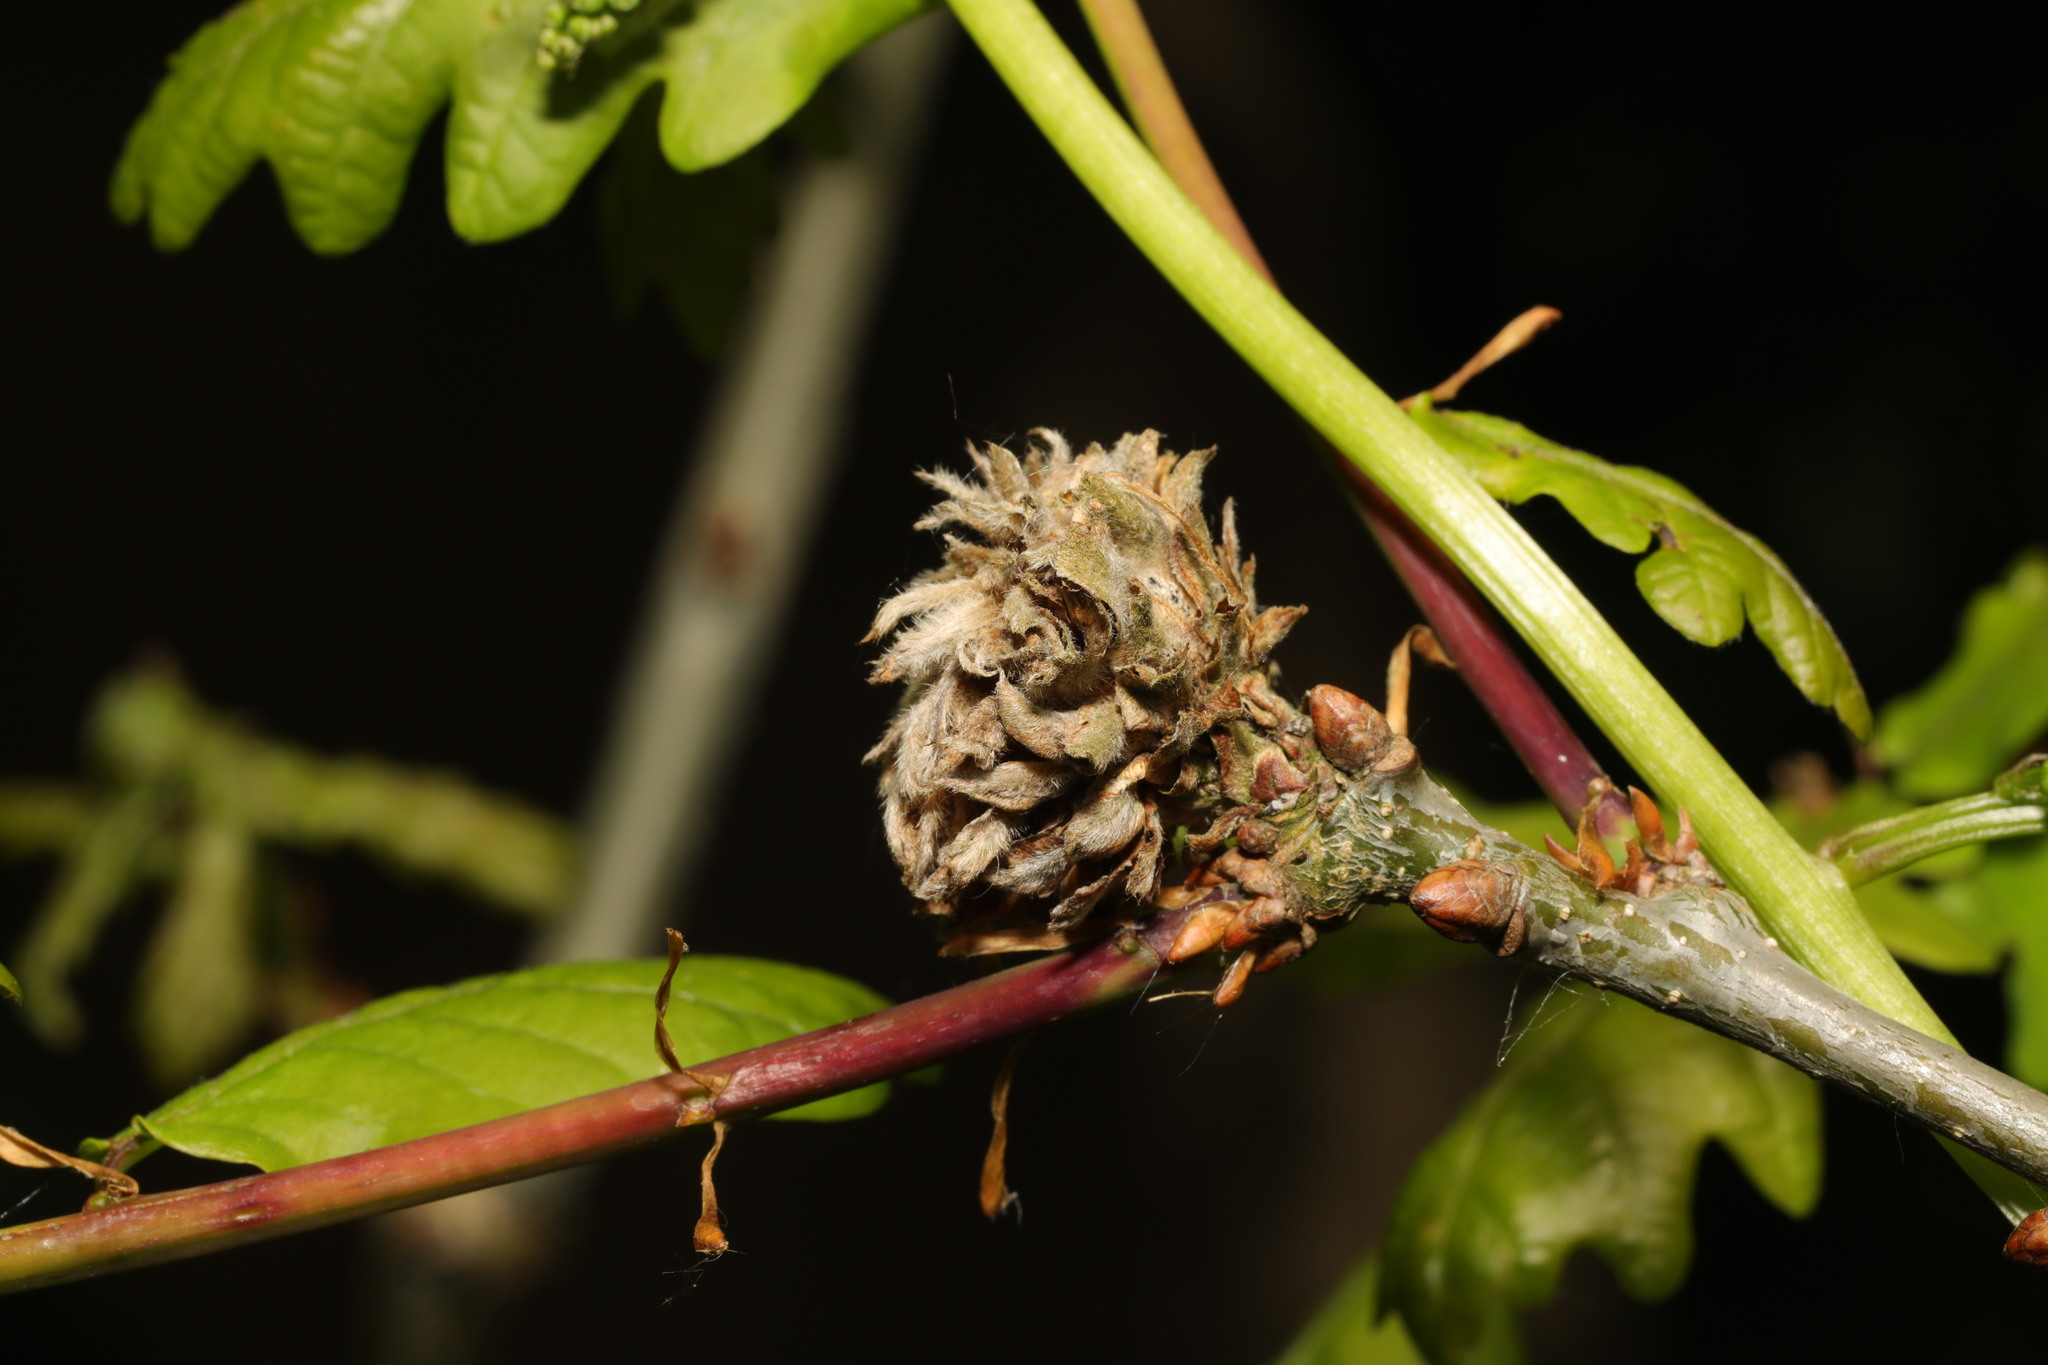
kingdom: Animalia
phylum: Arthropoda
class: Insecta
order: Hymenoptera
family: Cynipidae
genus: Andricus
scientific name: Andricus foecundatrix
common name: Artichoke gall
